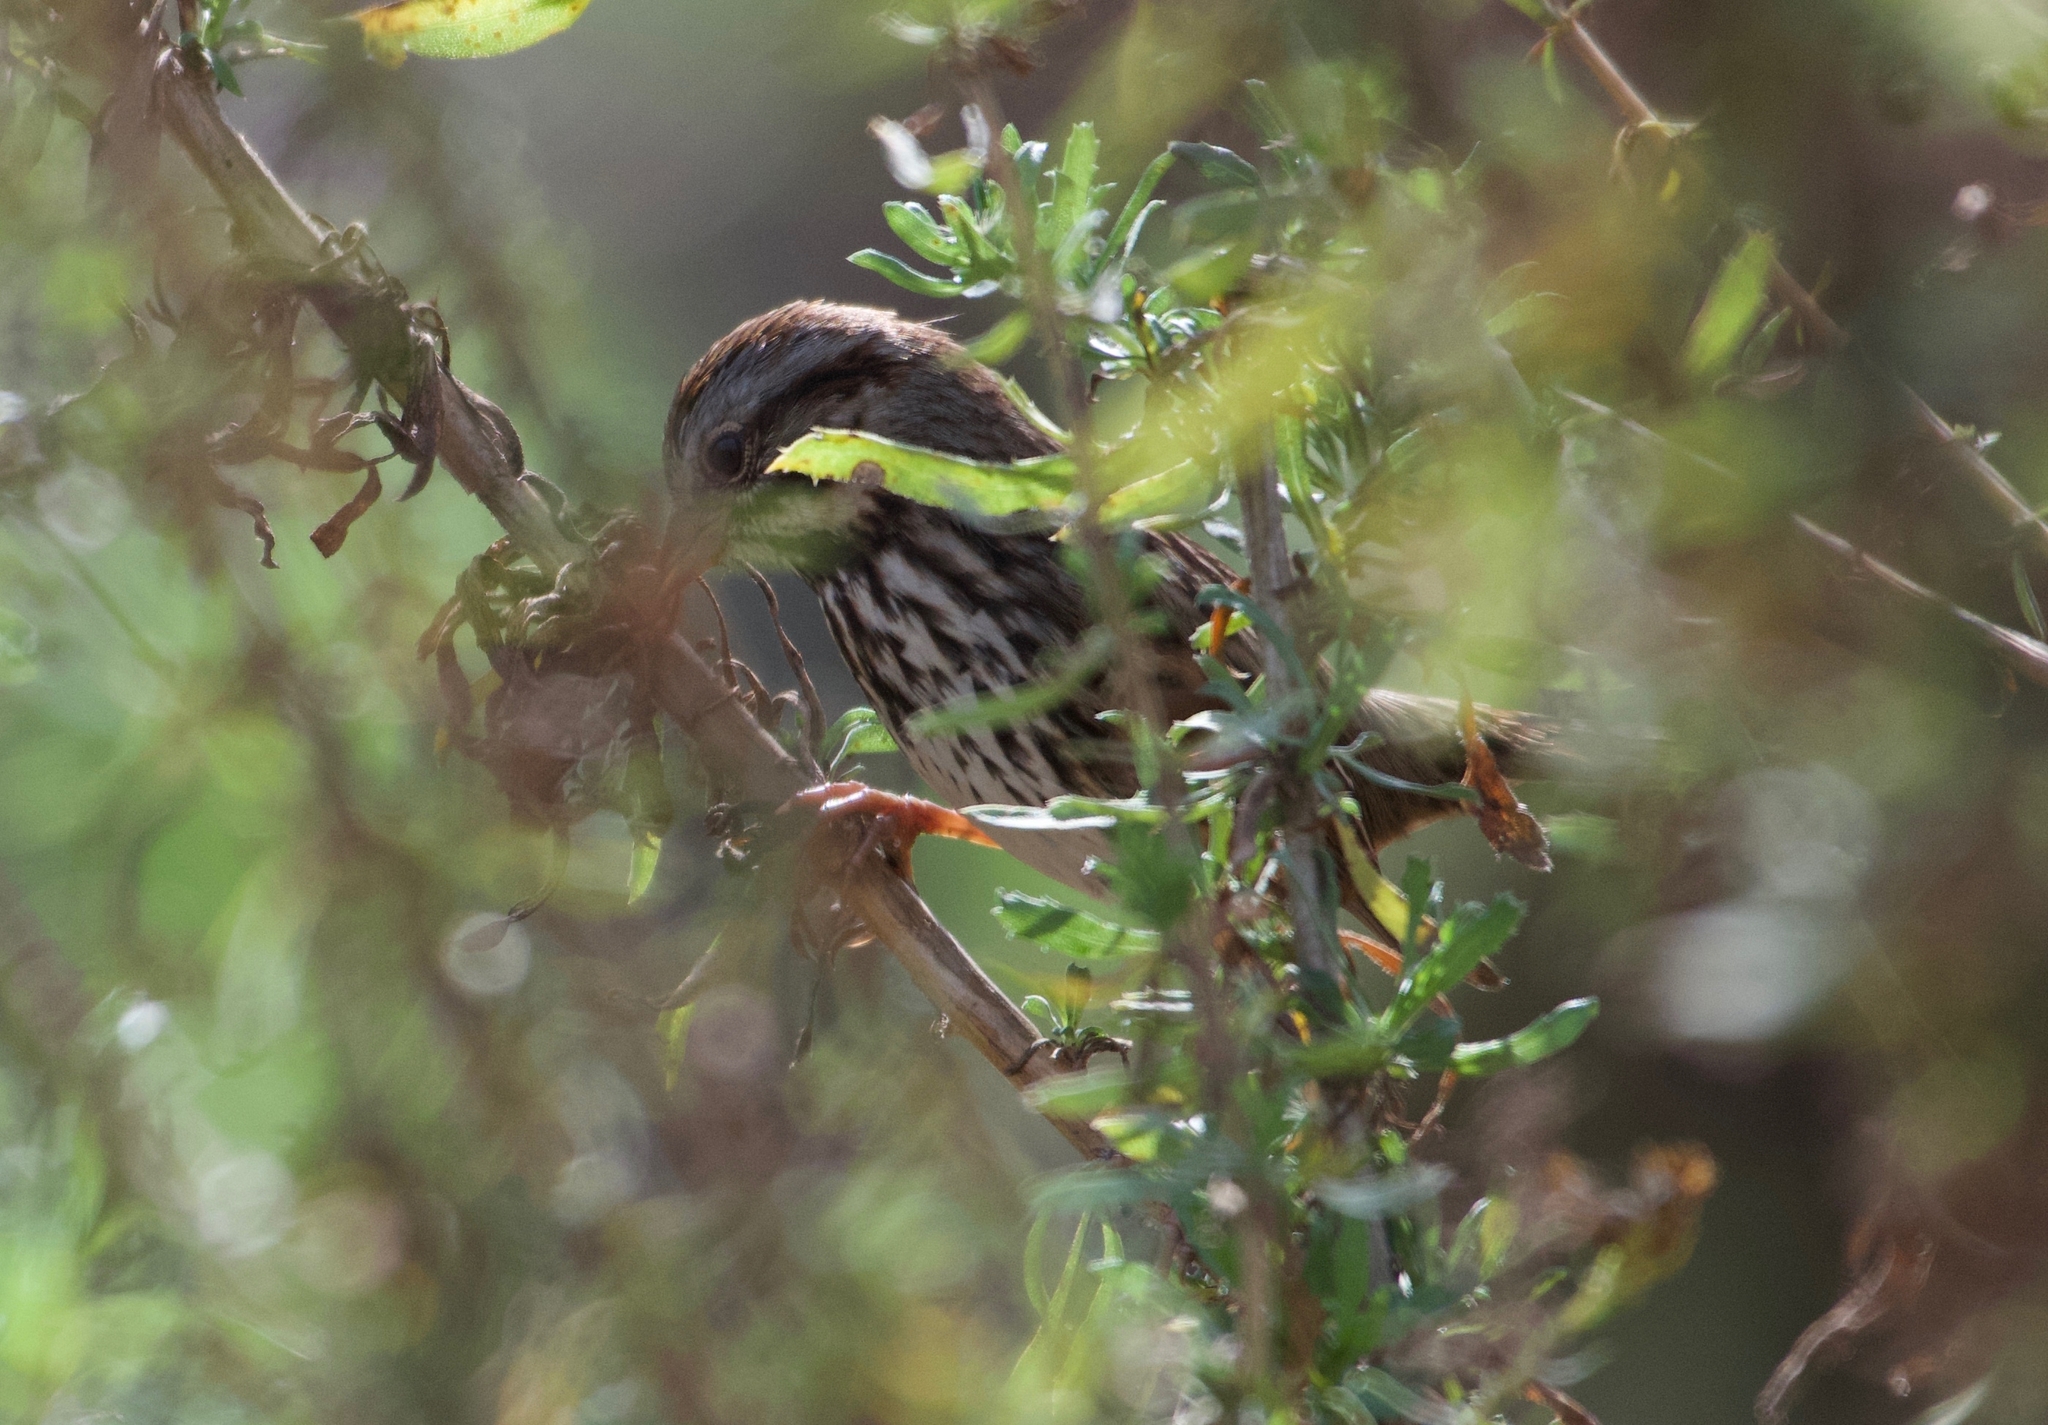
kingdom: Animalia
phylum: Chordata
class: Aves
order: Passeriformes
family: Passerellidae
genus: Melospiza
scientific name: Melospiza melodia
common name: Song sparrow
